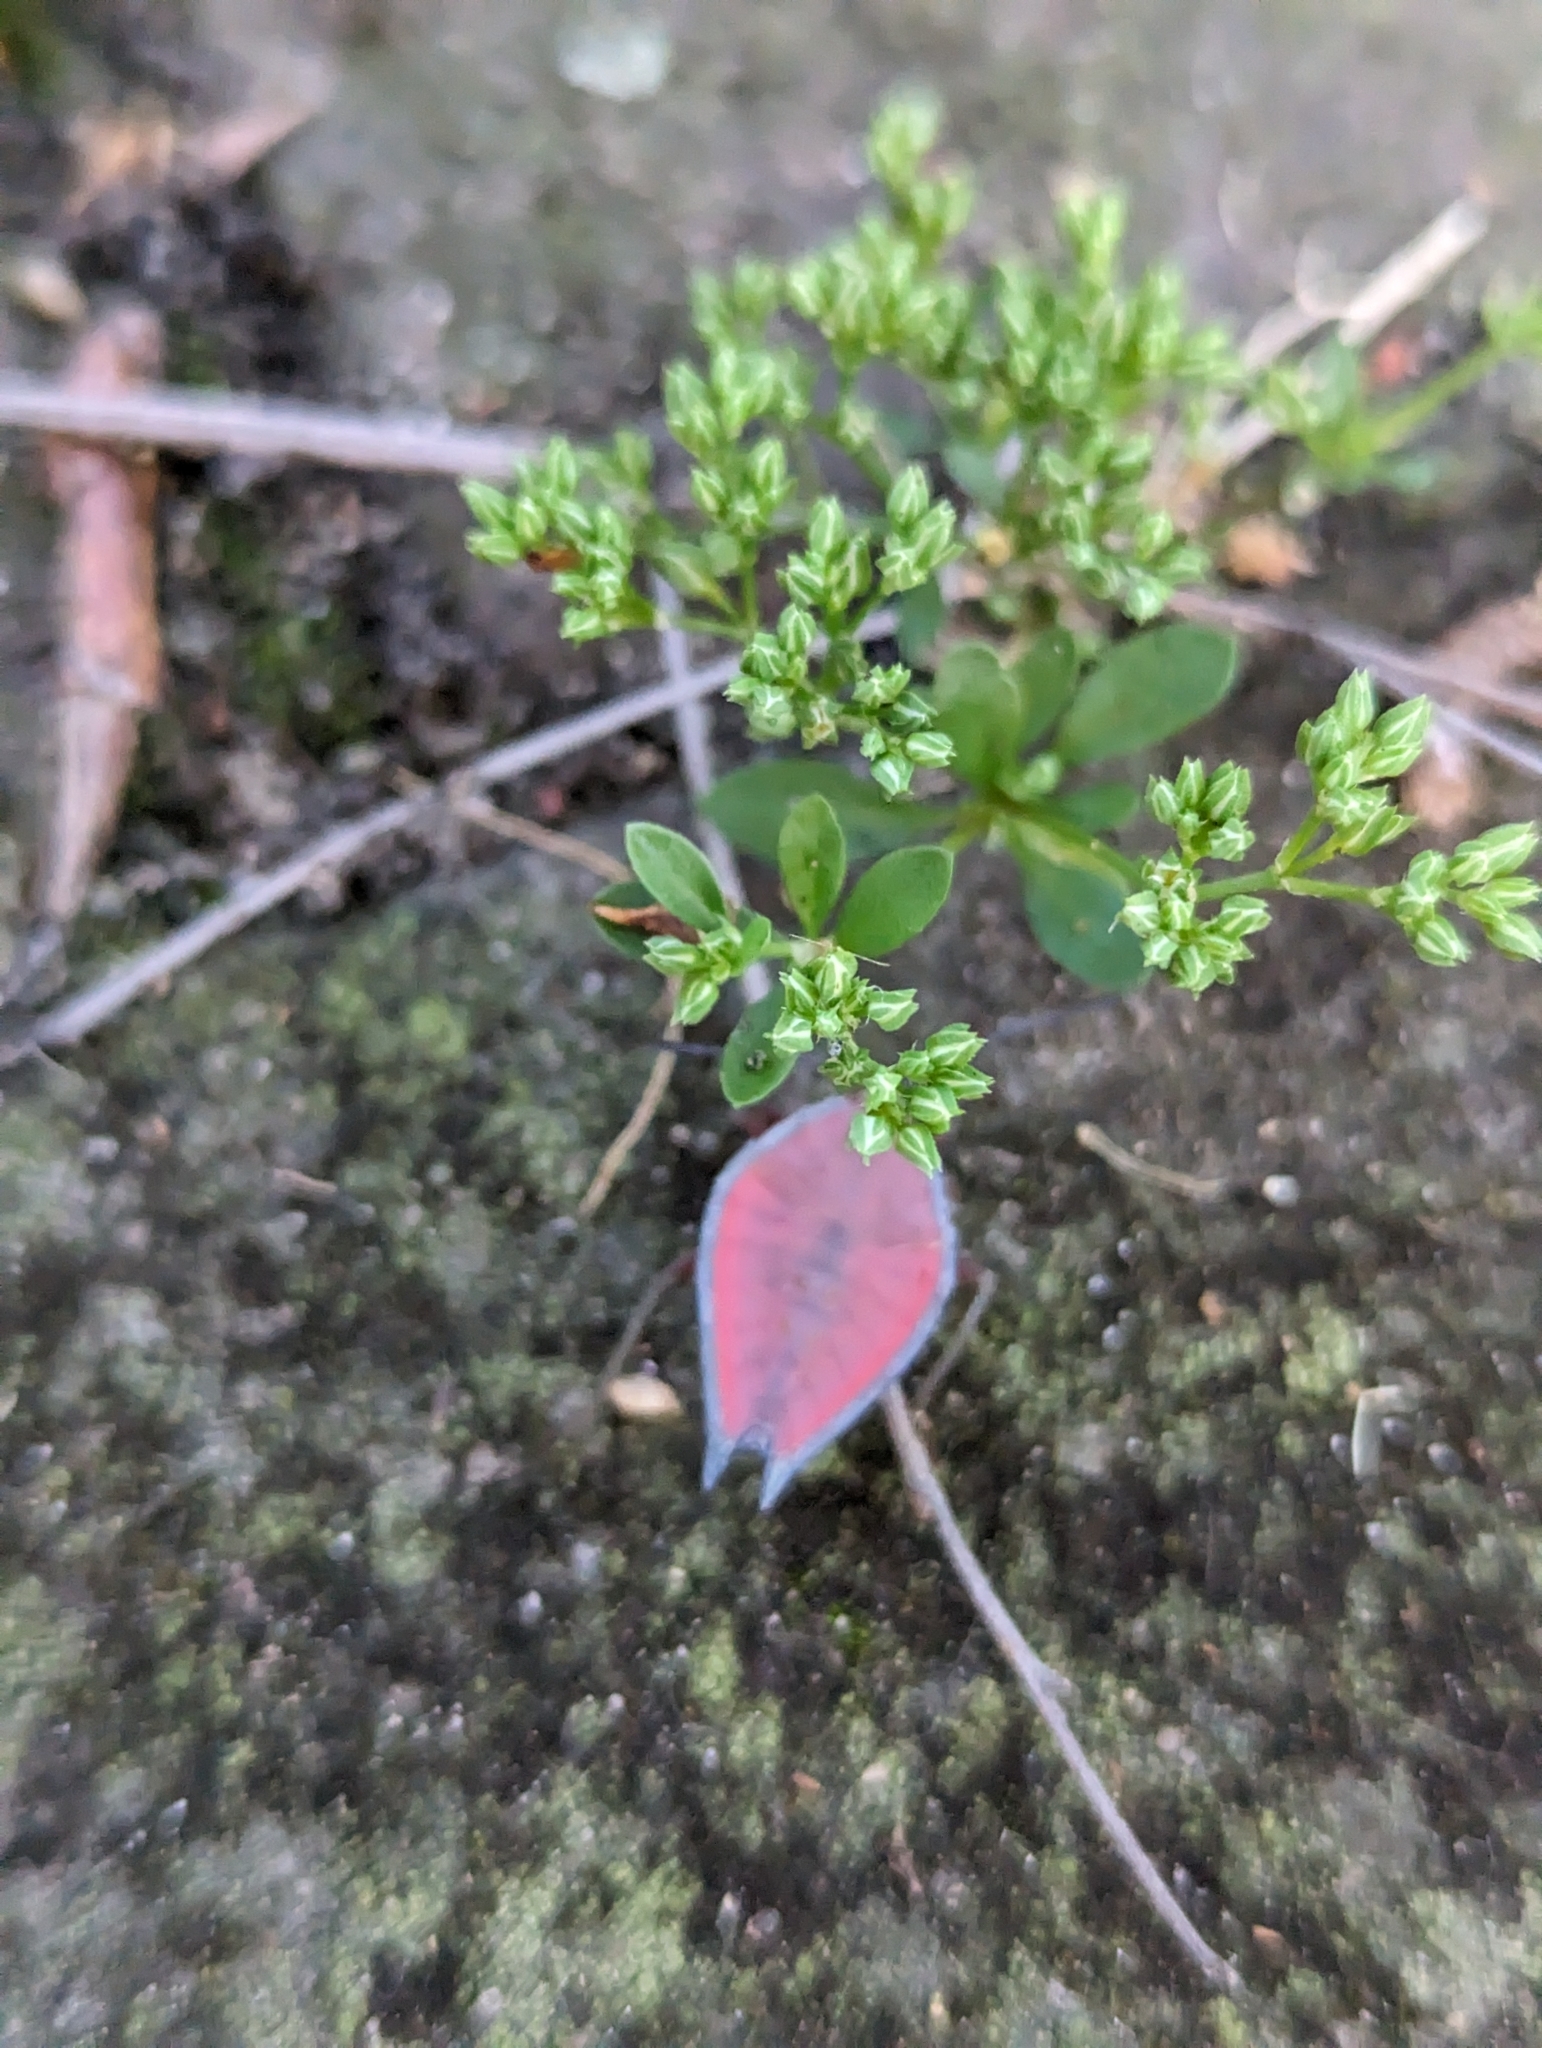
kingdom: Animalia
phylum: Arthropoda
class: Insecta
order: Hemiptera
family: Tessaratomidae
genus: Lyramorpha
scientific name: Lyramorpha rosea
